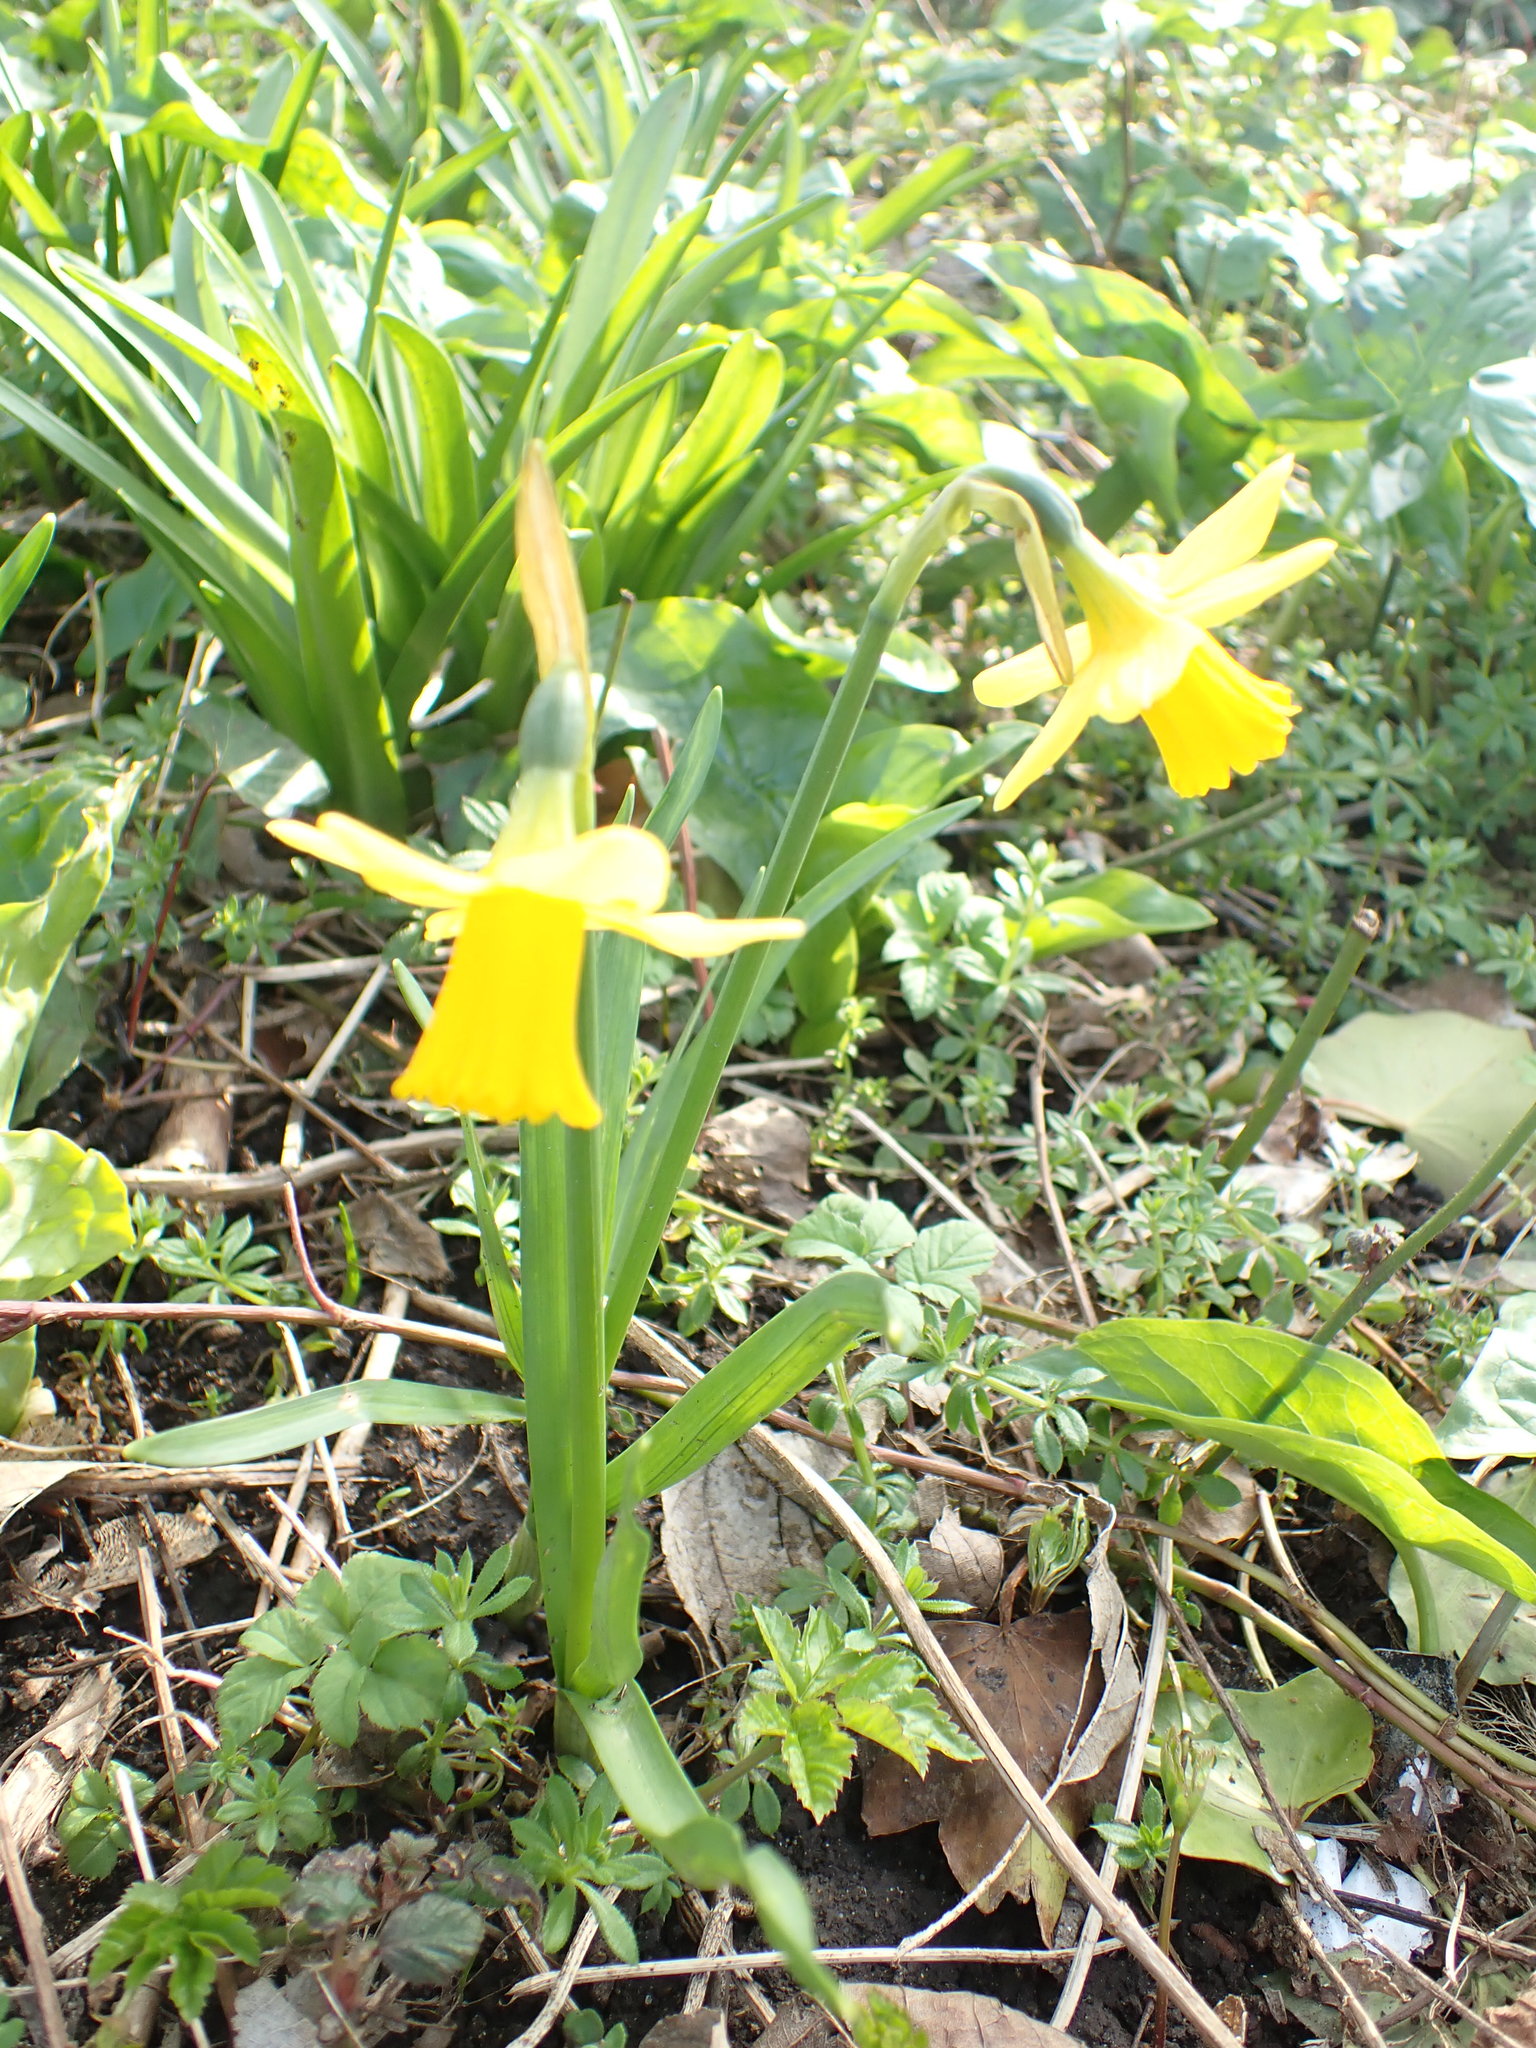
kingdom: Plantae
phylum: Tracheophyta
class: Liliopsida
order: Asparagales
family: Amaryllidaceae
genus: Narcissus
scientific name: Narcissus cyclazetta
